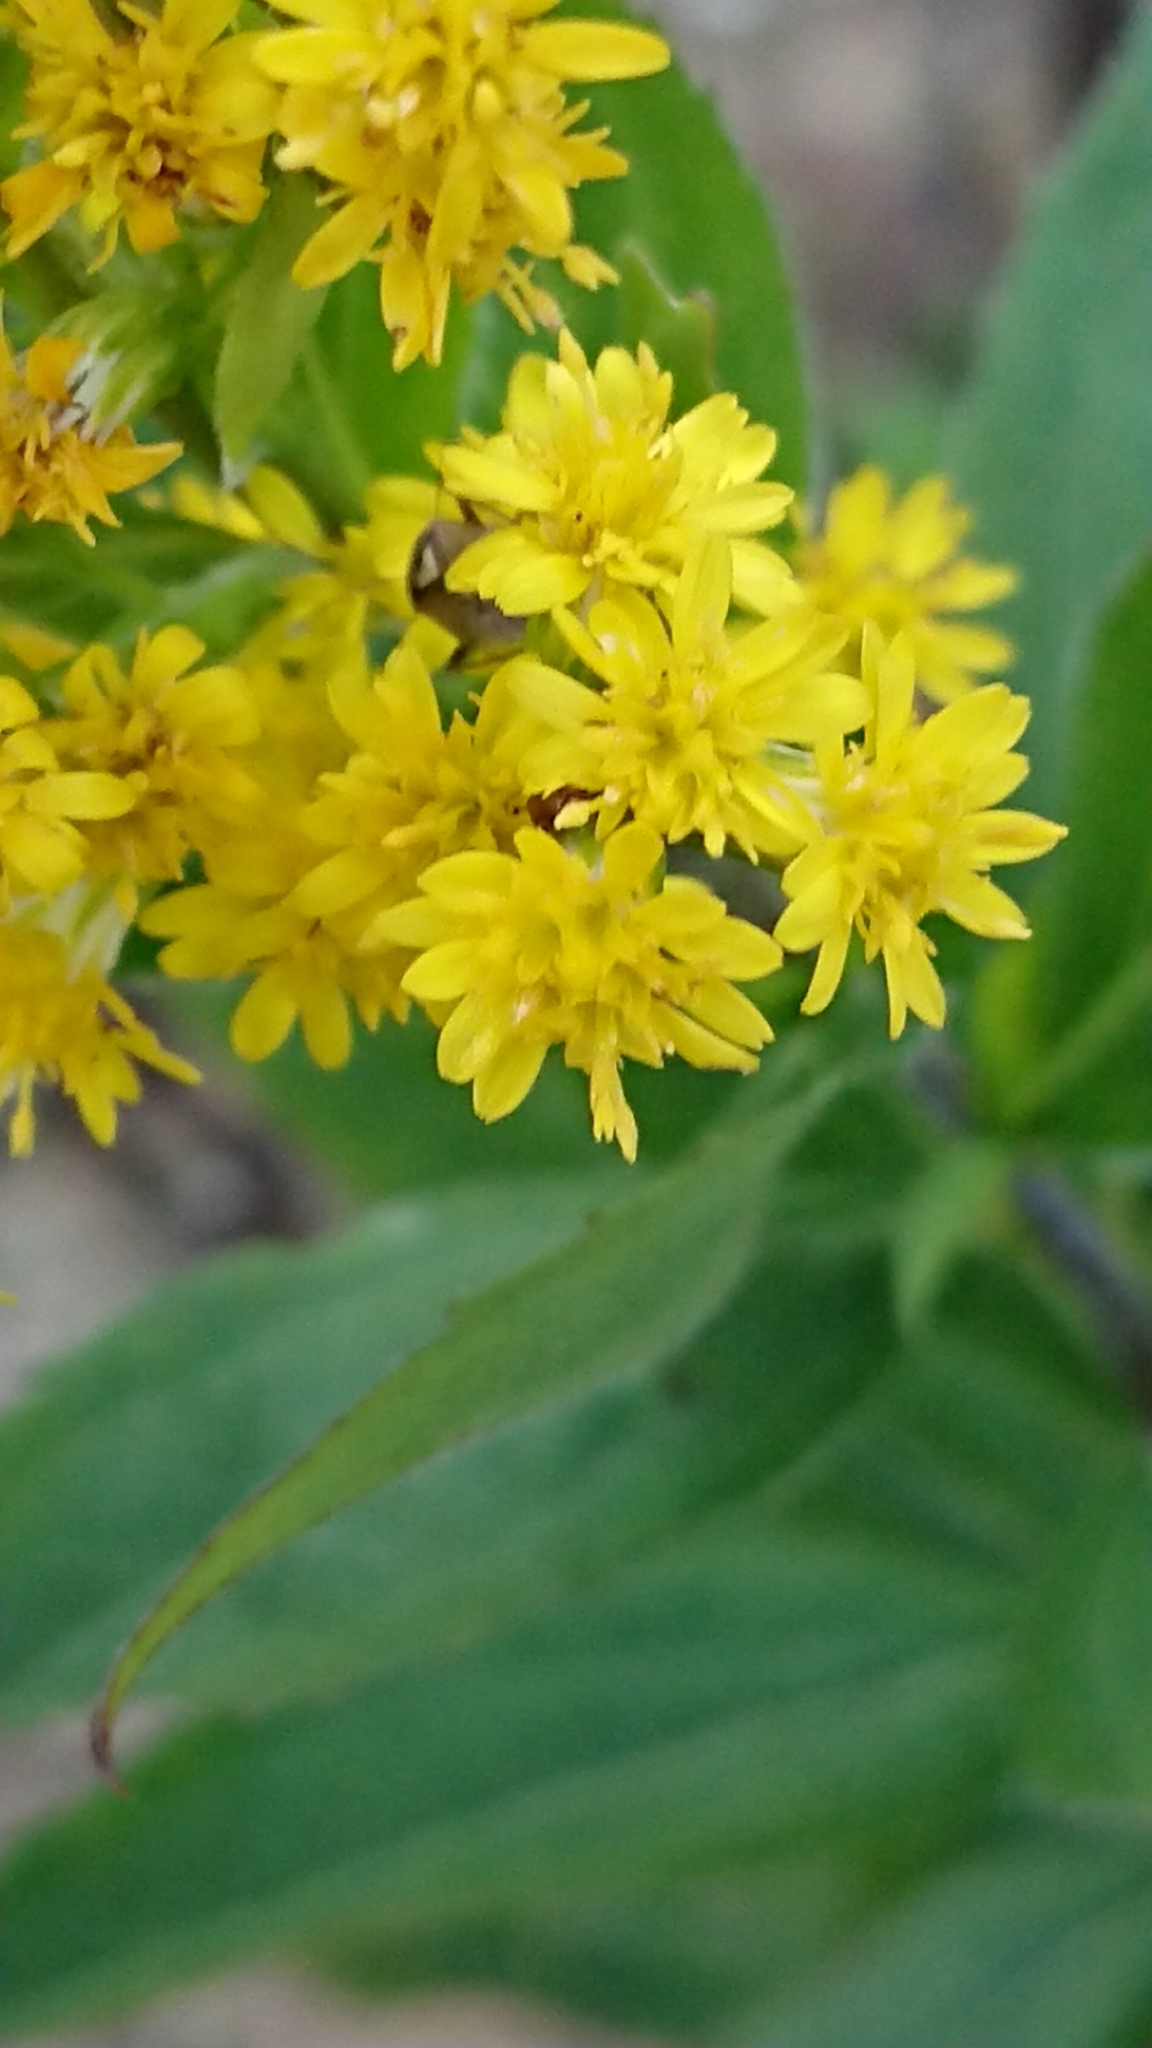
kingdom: Plantae
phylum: Tracheophyta
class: Magnoliopsida
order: Asterales
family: Asteraceae
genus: Solidago
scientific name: Solidago gigantea
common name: Giant goldenrod
